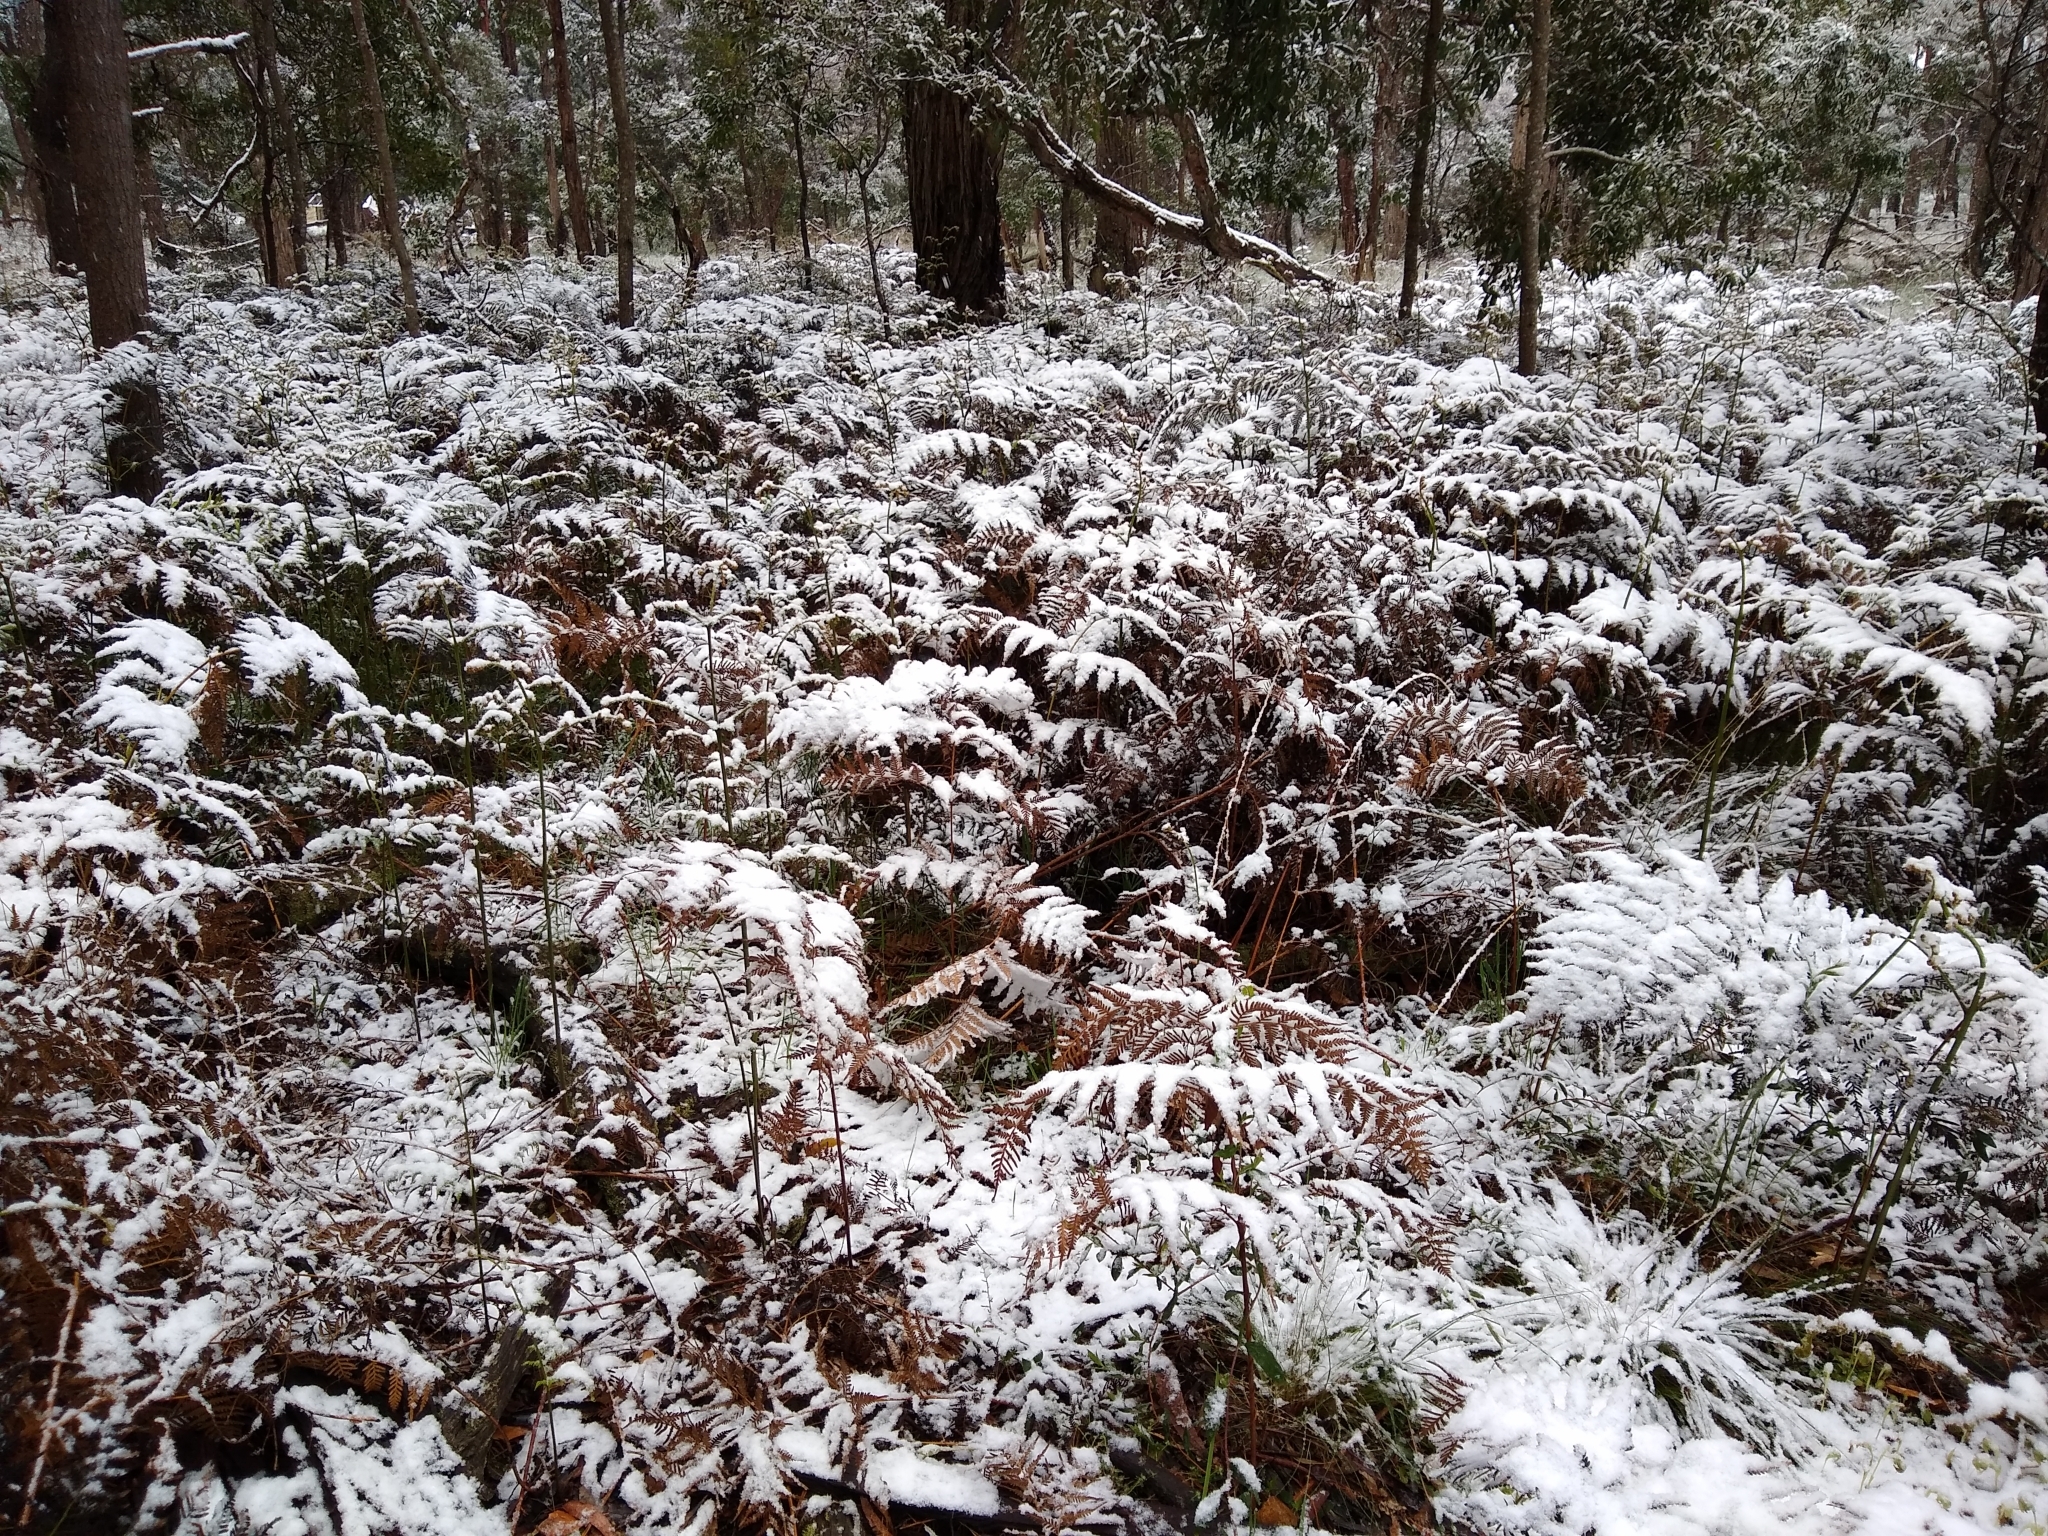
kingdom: Plantae
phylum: Tracheophyta
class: Polypodiopsida
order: Polypodiales
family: Dennstaedtiaceae
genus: Pteridium
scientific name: Pteridium esculentum
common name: Bracken fern
